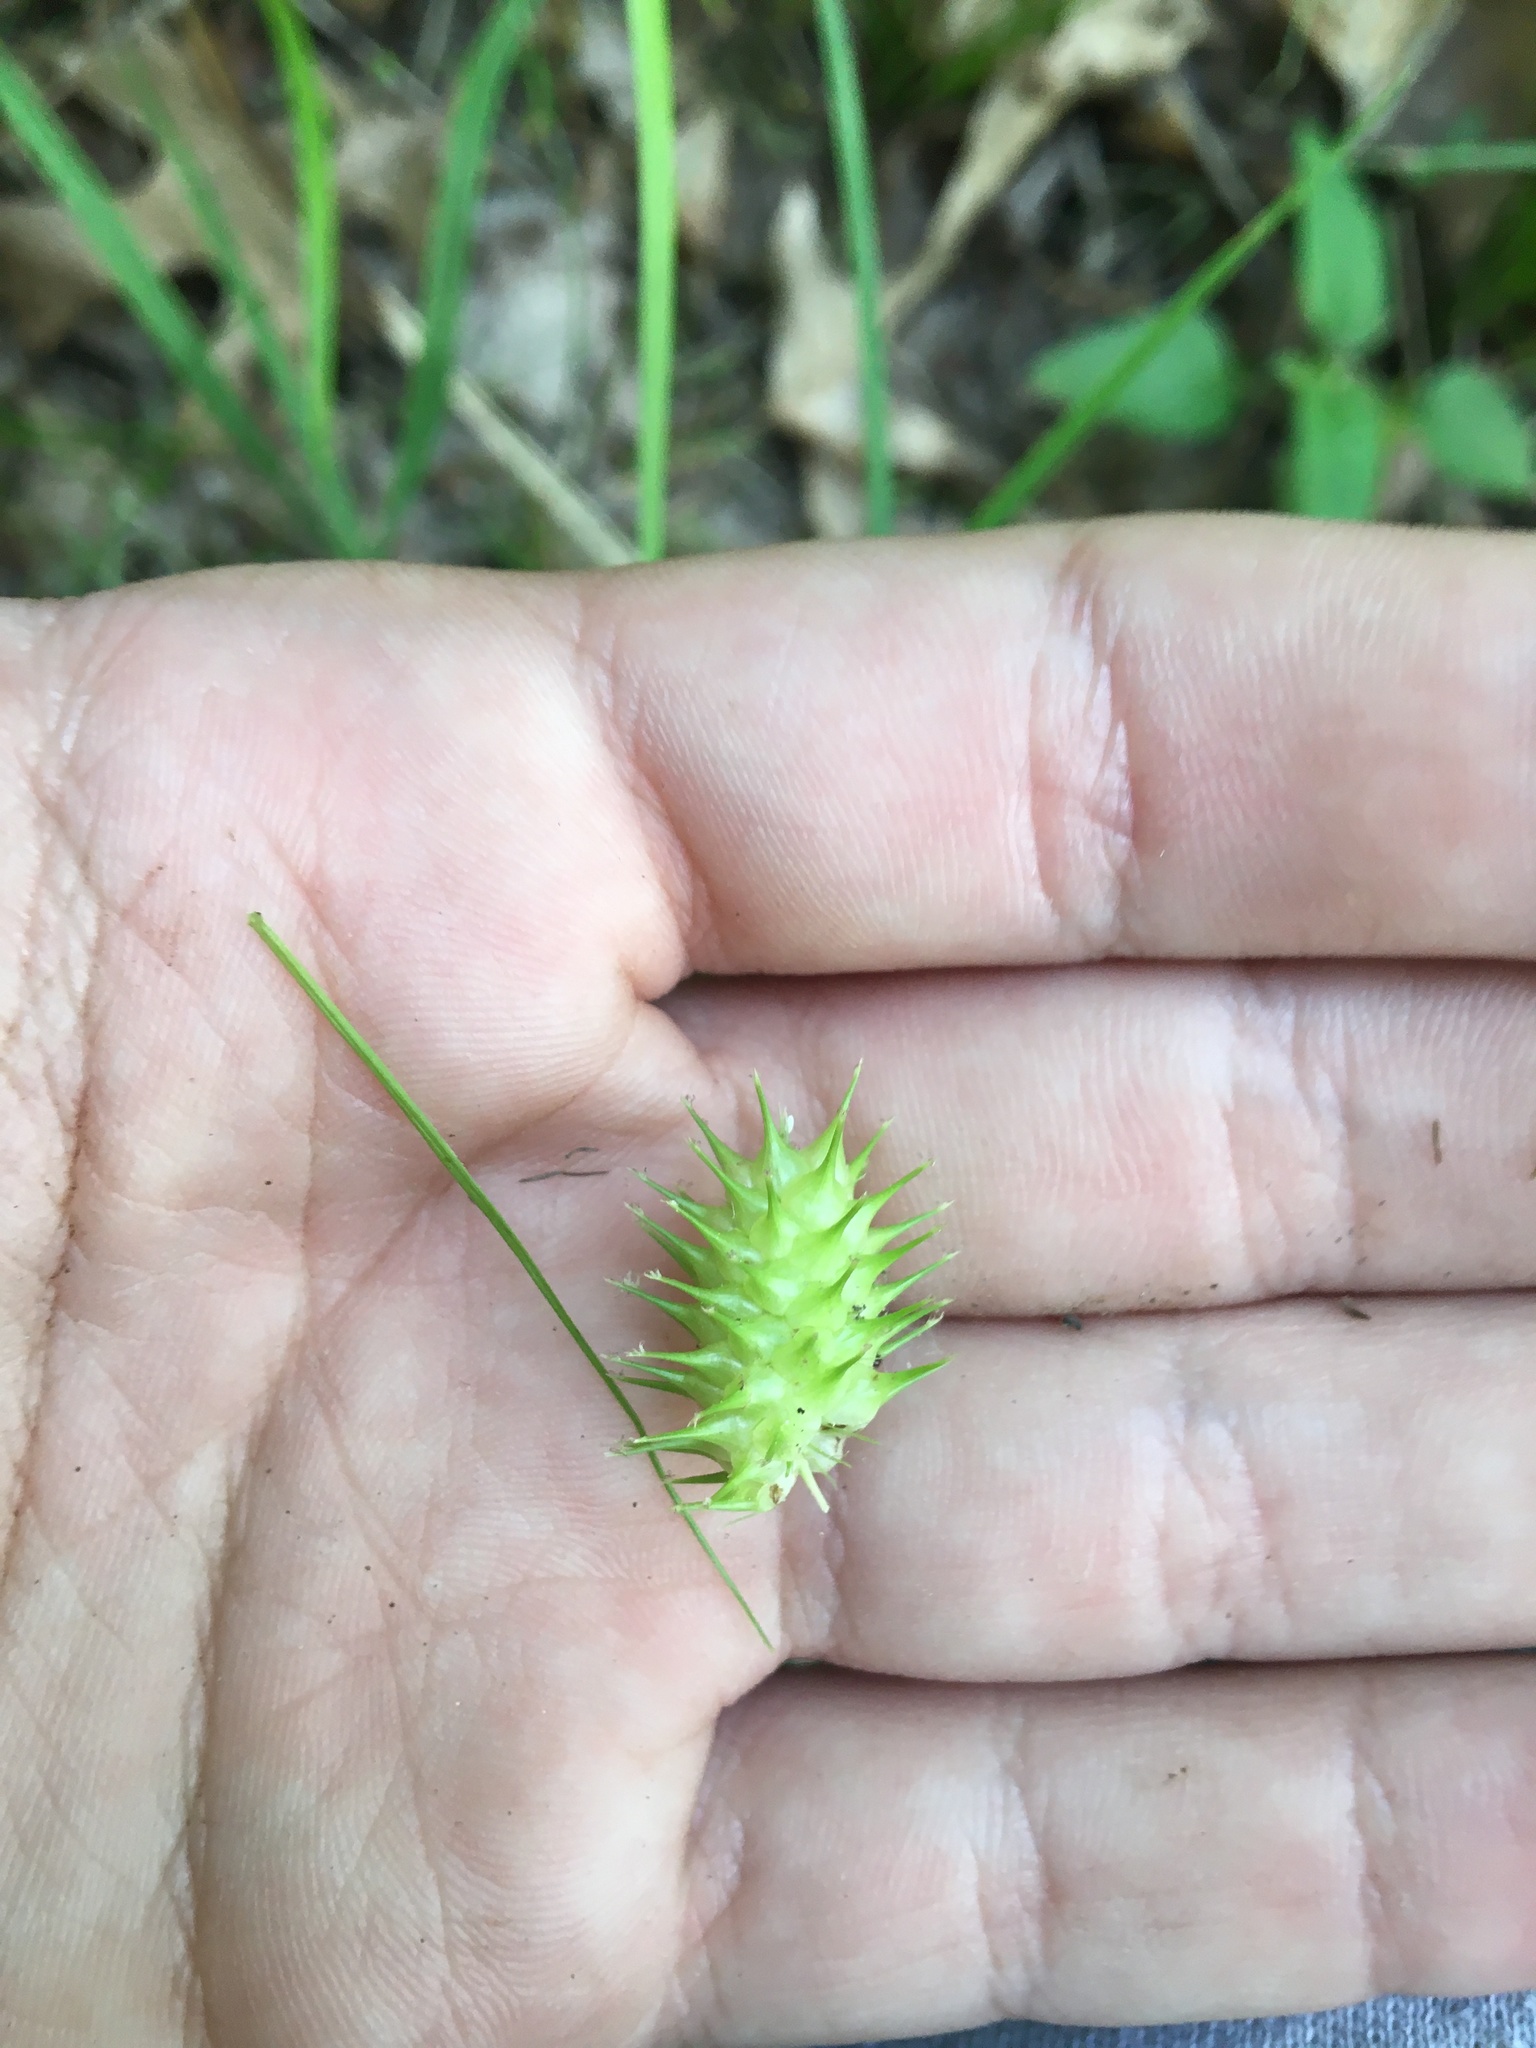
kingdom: Plantae
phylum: Tracheophyta
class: Liliopsida
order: Poales
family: Cyperaceae
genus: Carex
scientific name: Carex lurida
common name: Sallow sedge
